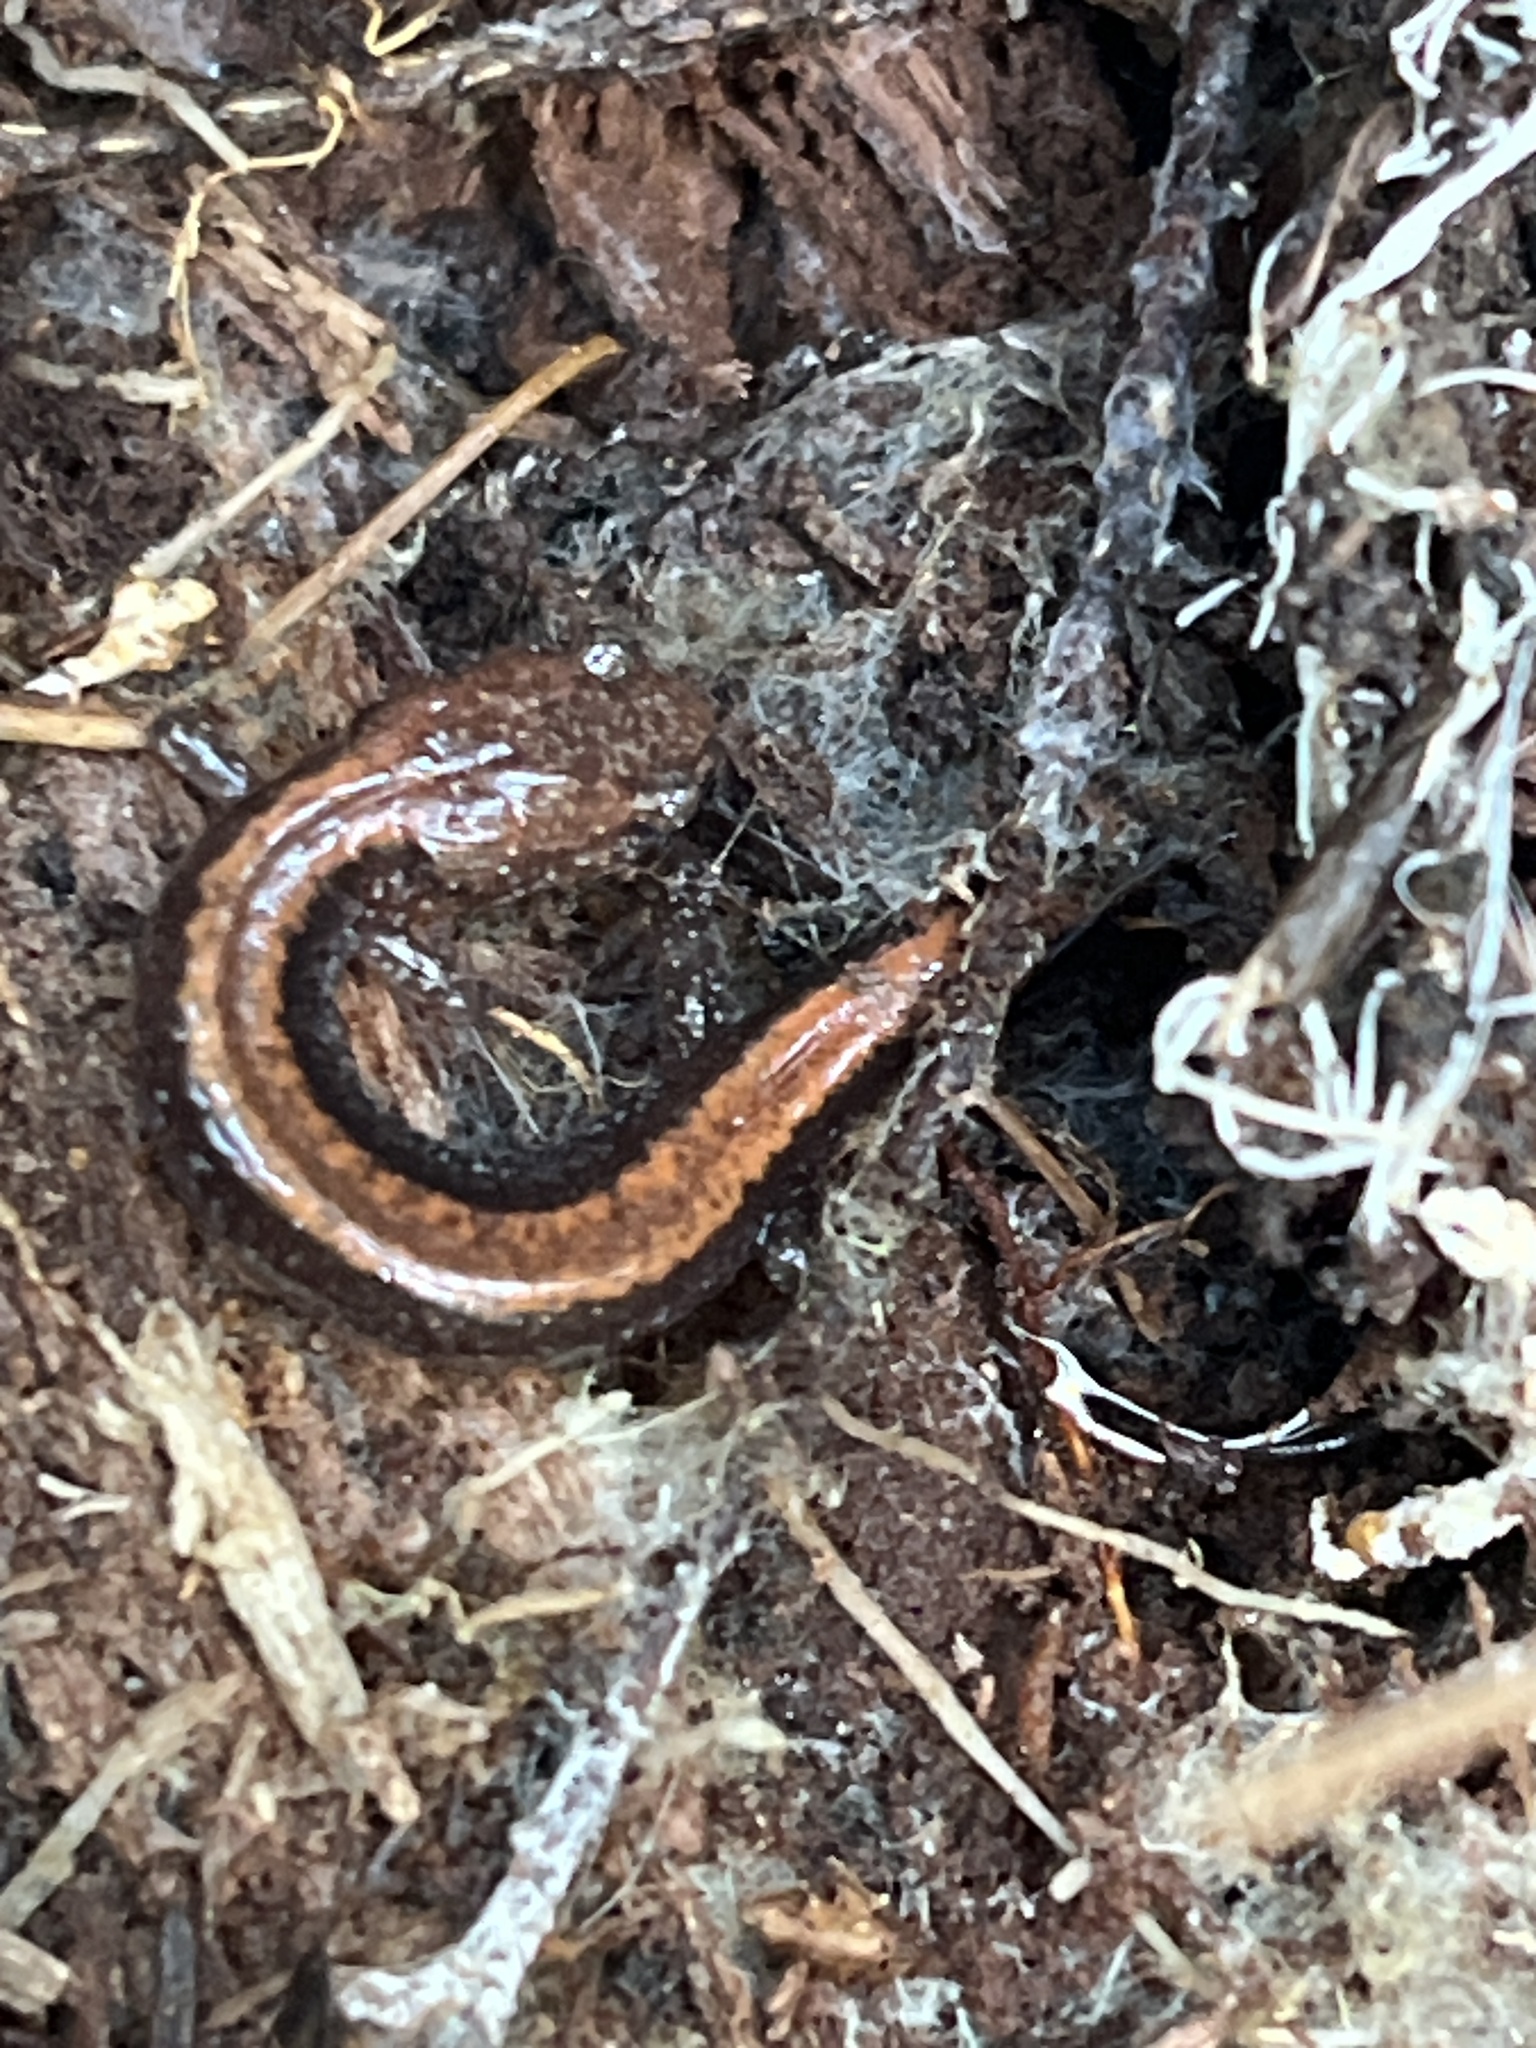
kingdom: Animalia
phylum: Chordata
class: Amphibia
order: Caudata
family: Plethodontidae
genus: Plethodon
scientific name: Plethodon cinereus
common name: Redback salamander
